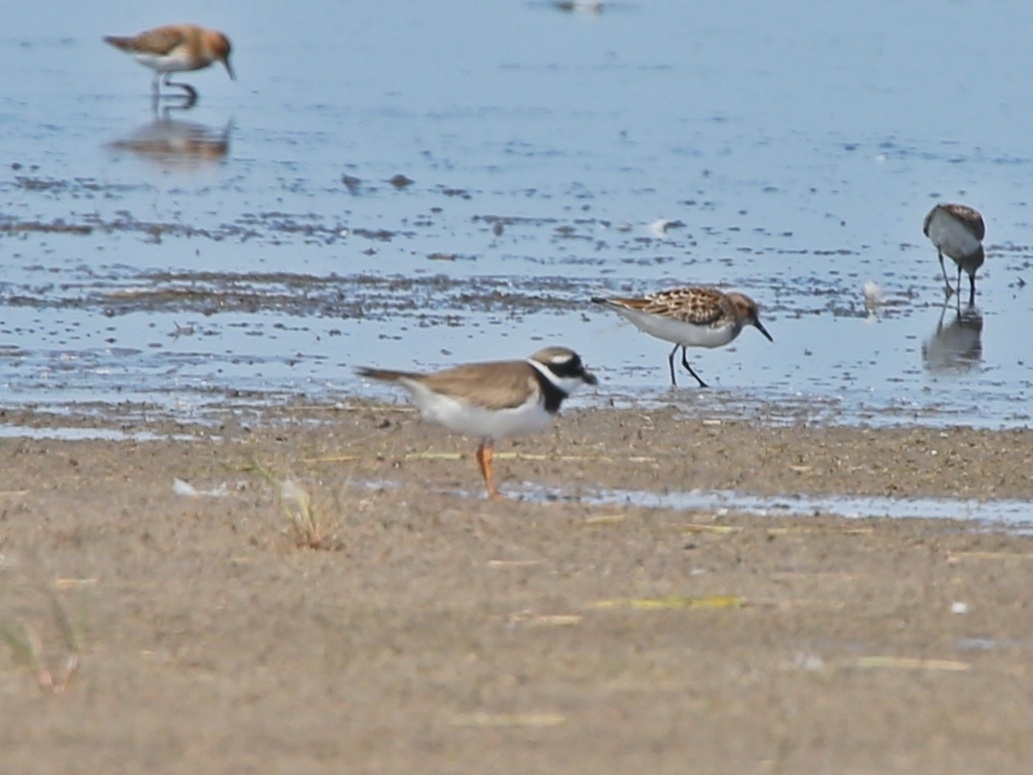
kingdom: Animalia
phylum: Chordata
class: Aves
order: Charadriiformes
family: Charadriidae
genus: Charadrius
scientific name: Charadrius hiaticula
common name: Common ringed plover
